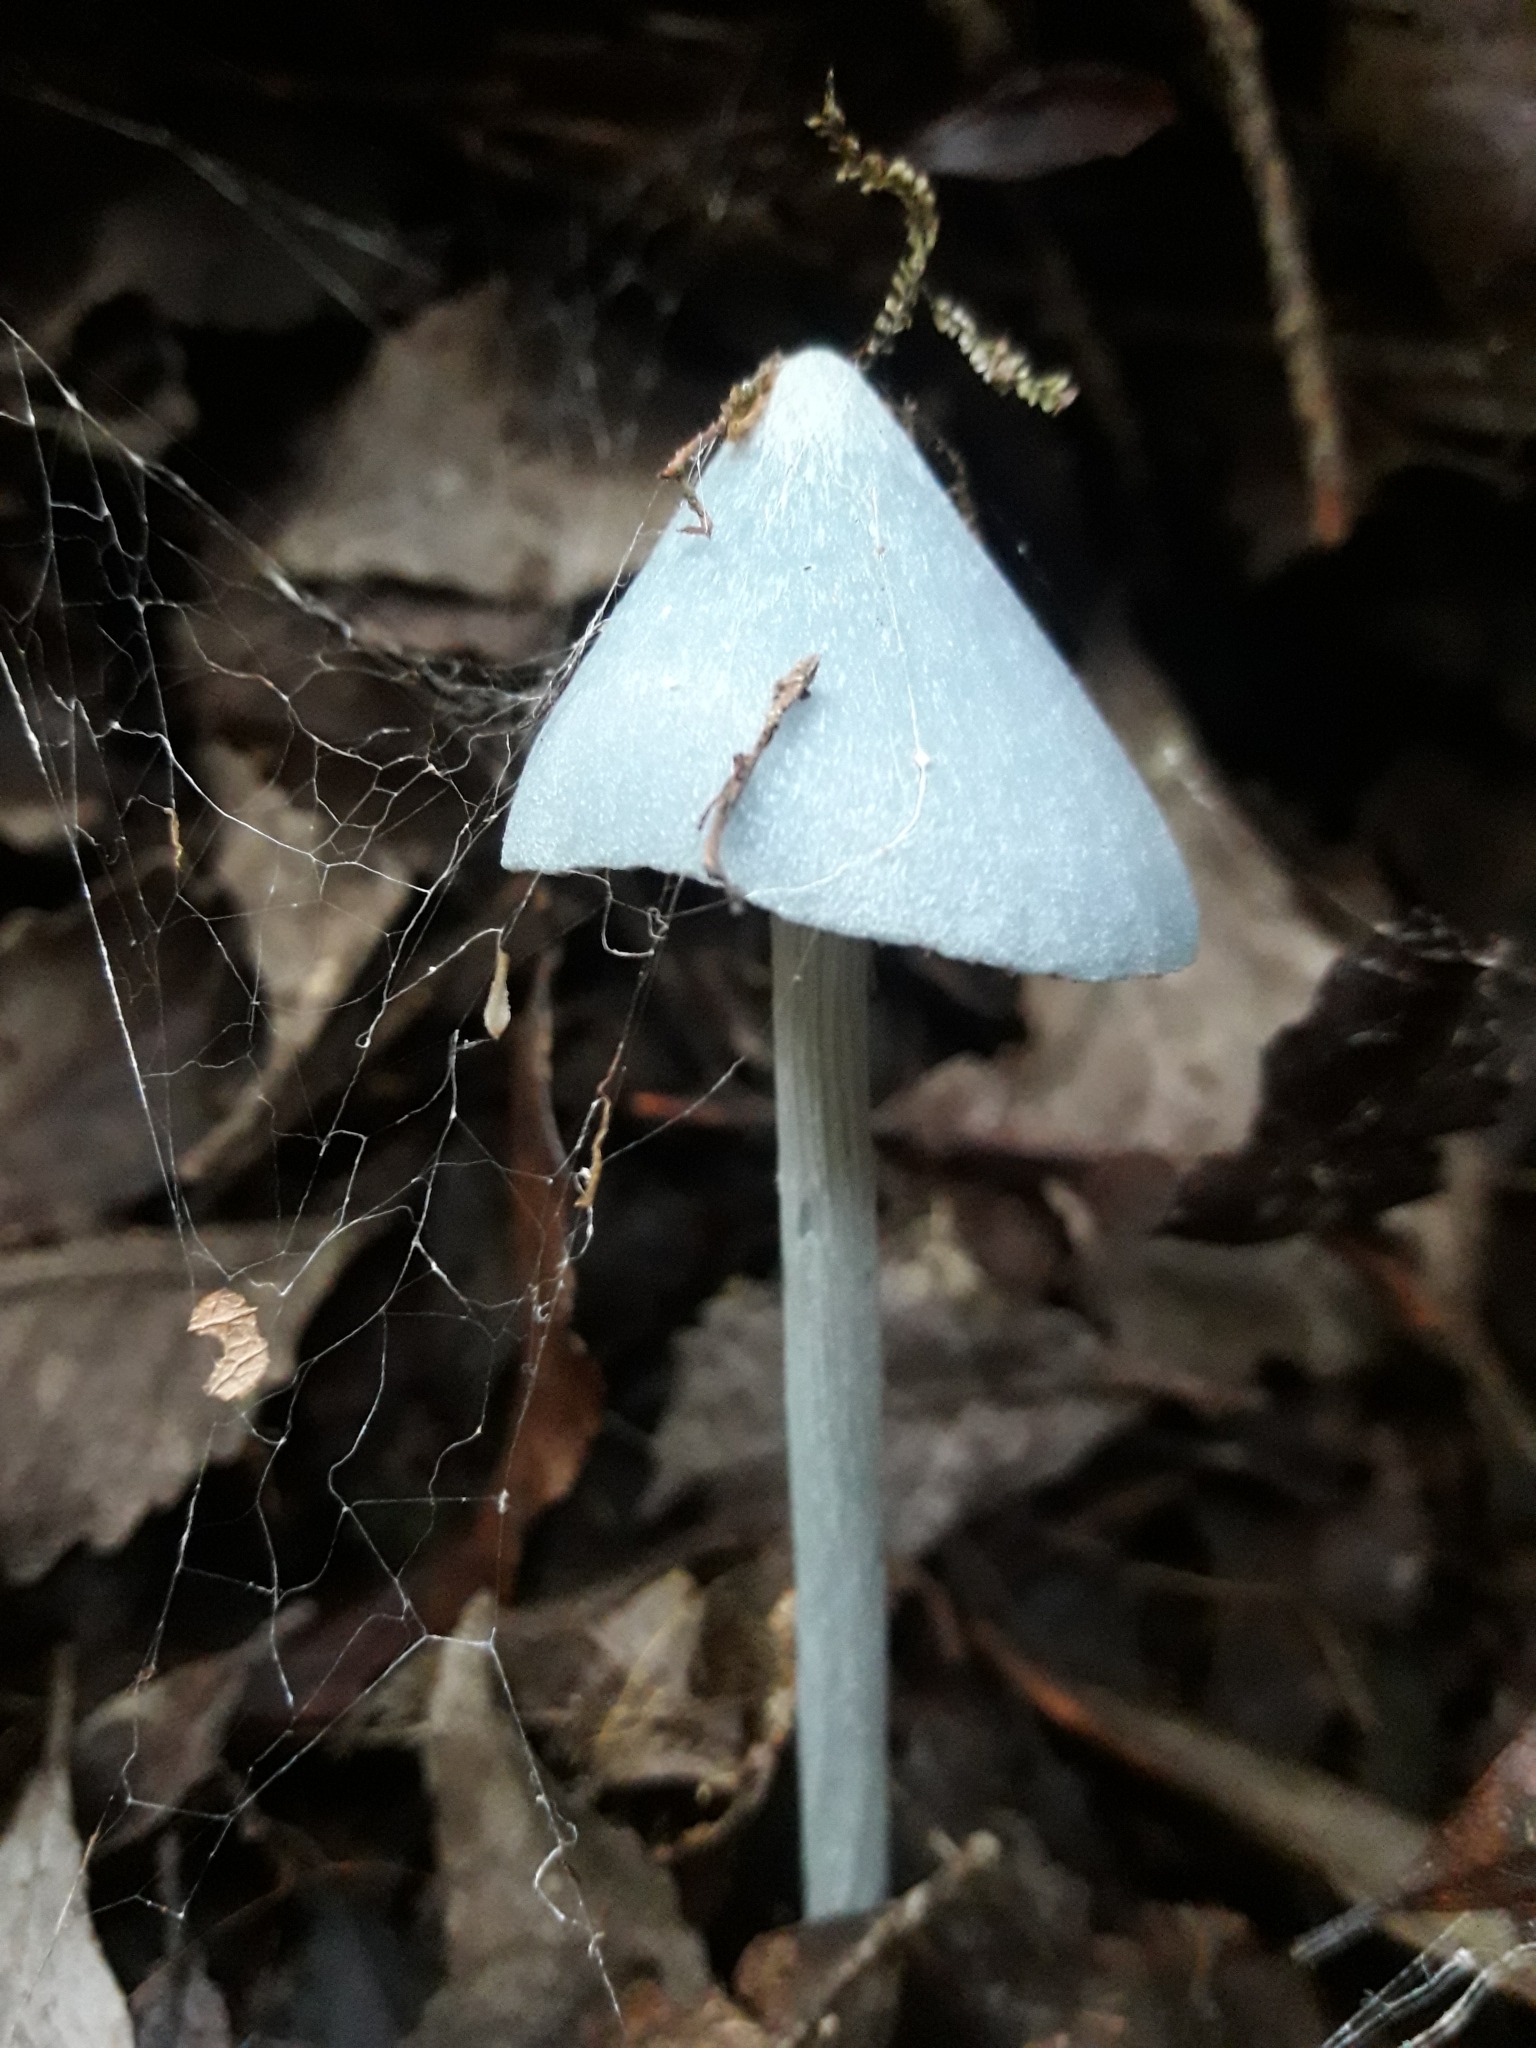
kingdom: Fungi
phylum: Basidiomycota
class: Agaricomycetes
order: Agaricales
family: Entolomataceae
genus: Entoloma
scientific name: Entoloma hochstetteri
